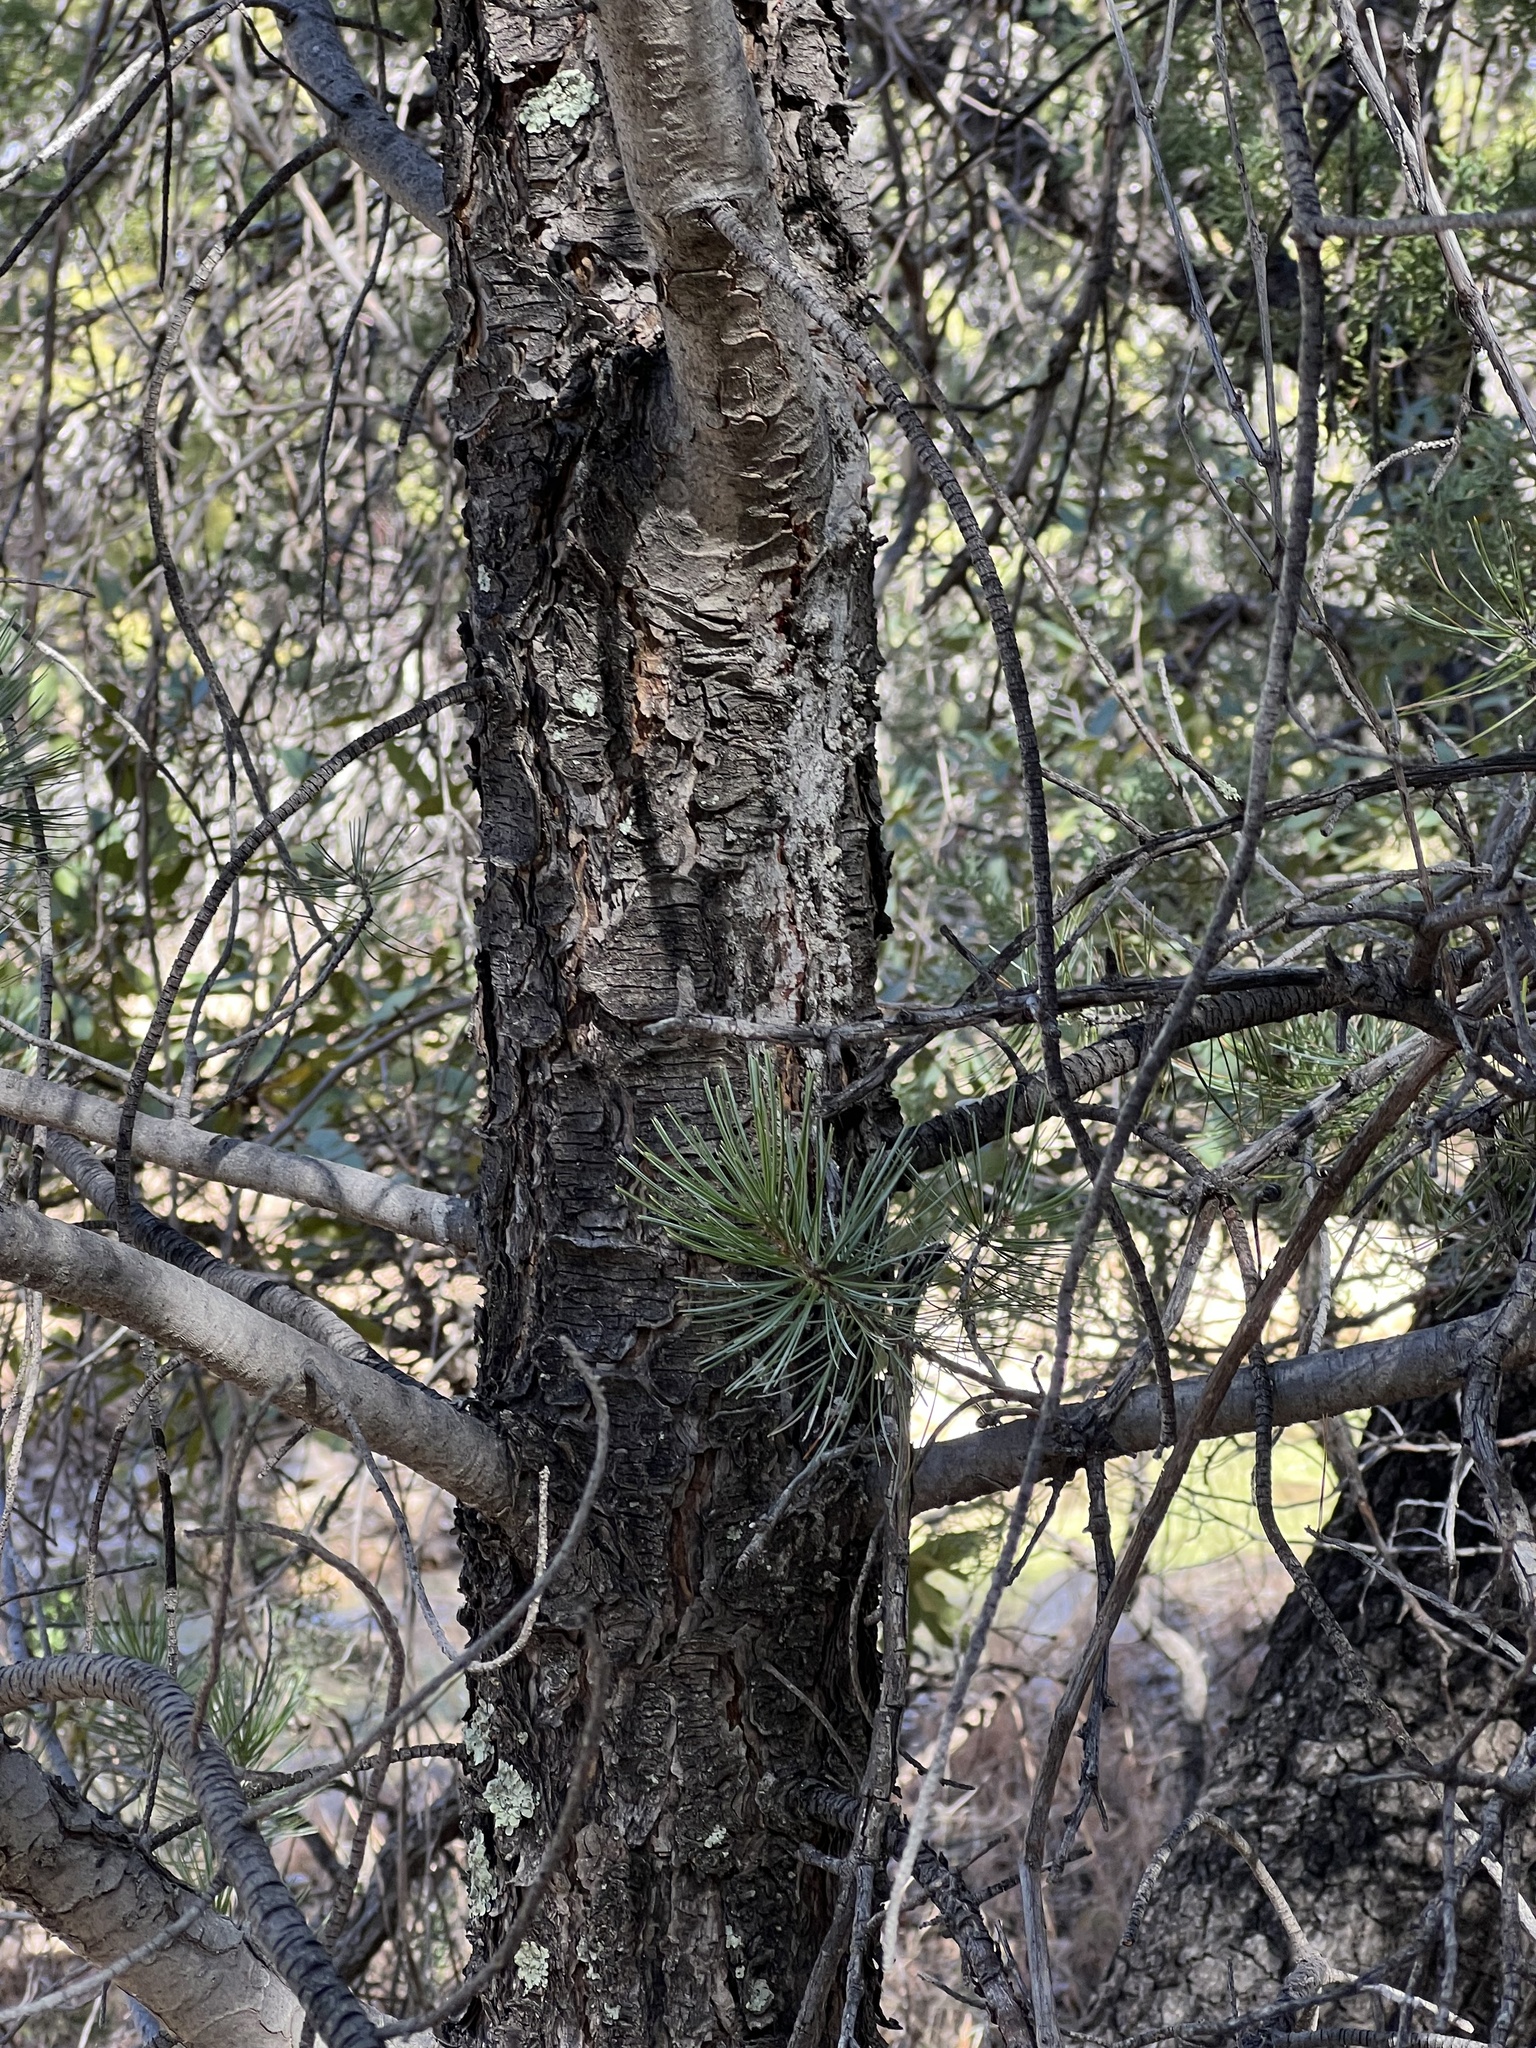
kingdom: Plantae
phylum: Tracheophyta
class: Pinopsida
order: Pinales
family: Pinaceae
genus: Pinus
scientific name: Pinus discolor
